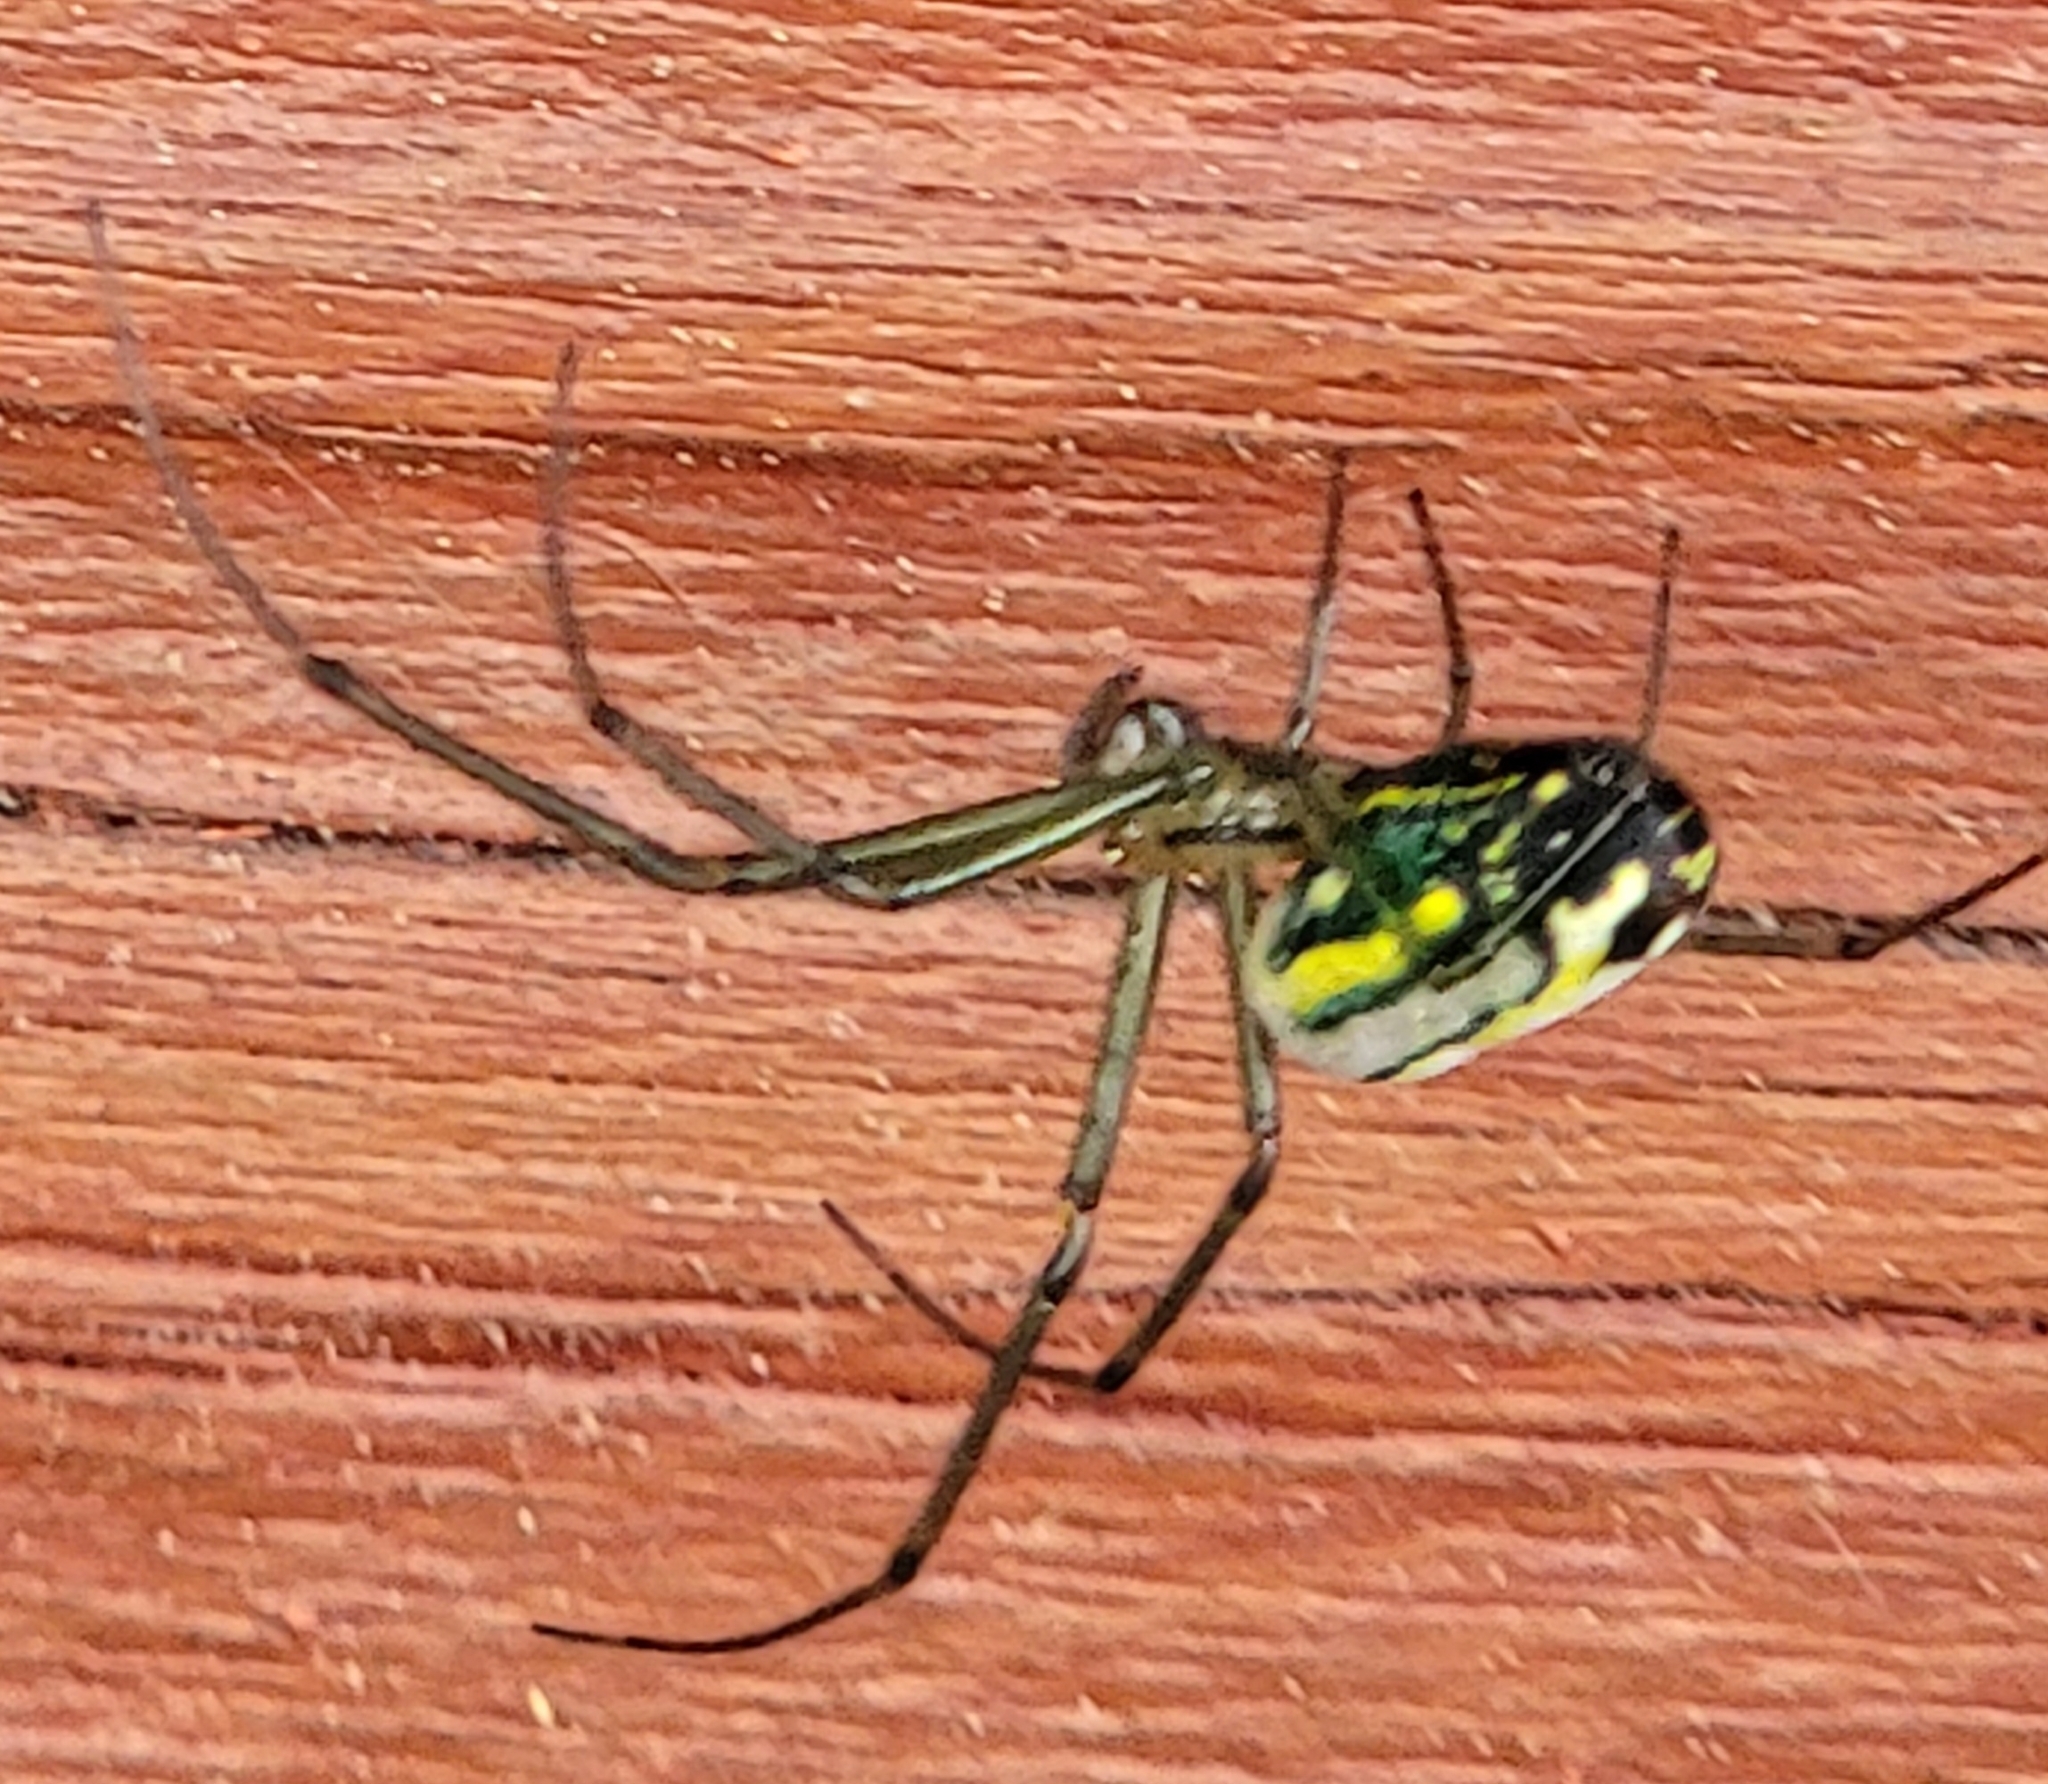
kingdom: Animalia
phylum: Arthropoda
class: Arachnida
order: Araneae
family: Tetragnathidae
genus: Leucauge
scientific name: Leucauge venusta
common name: Longjawed orb weavers
